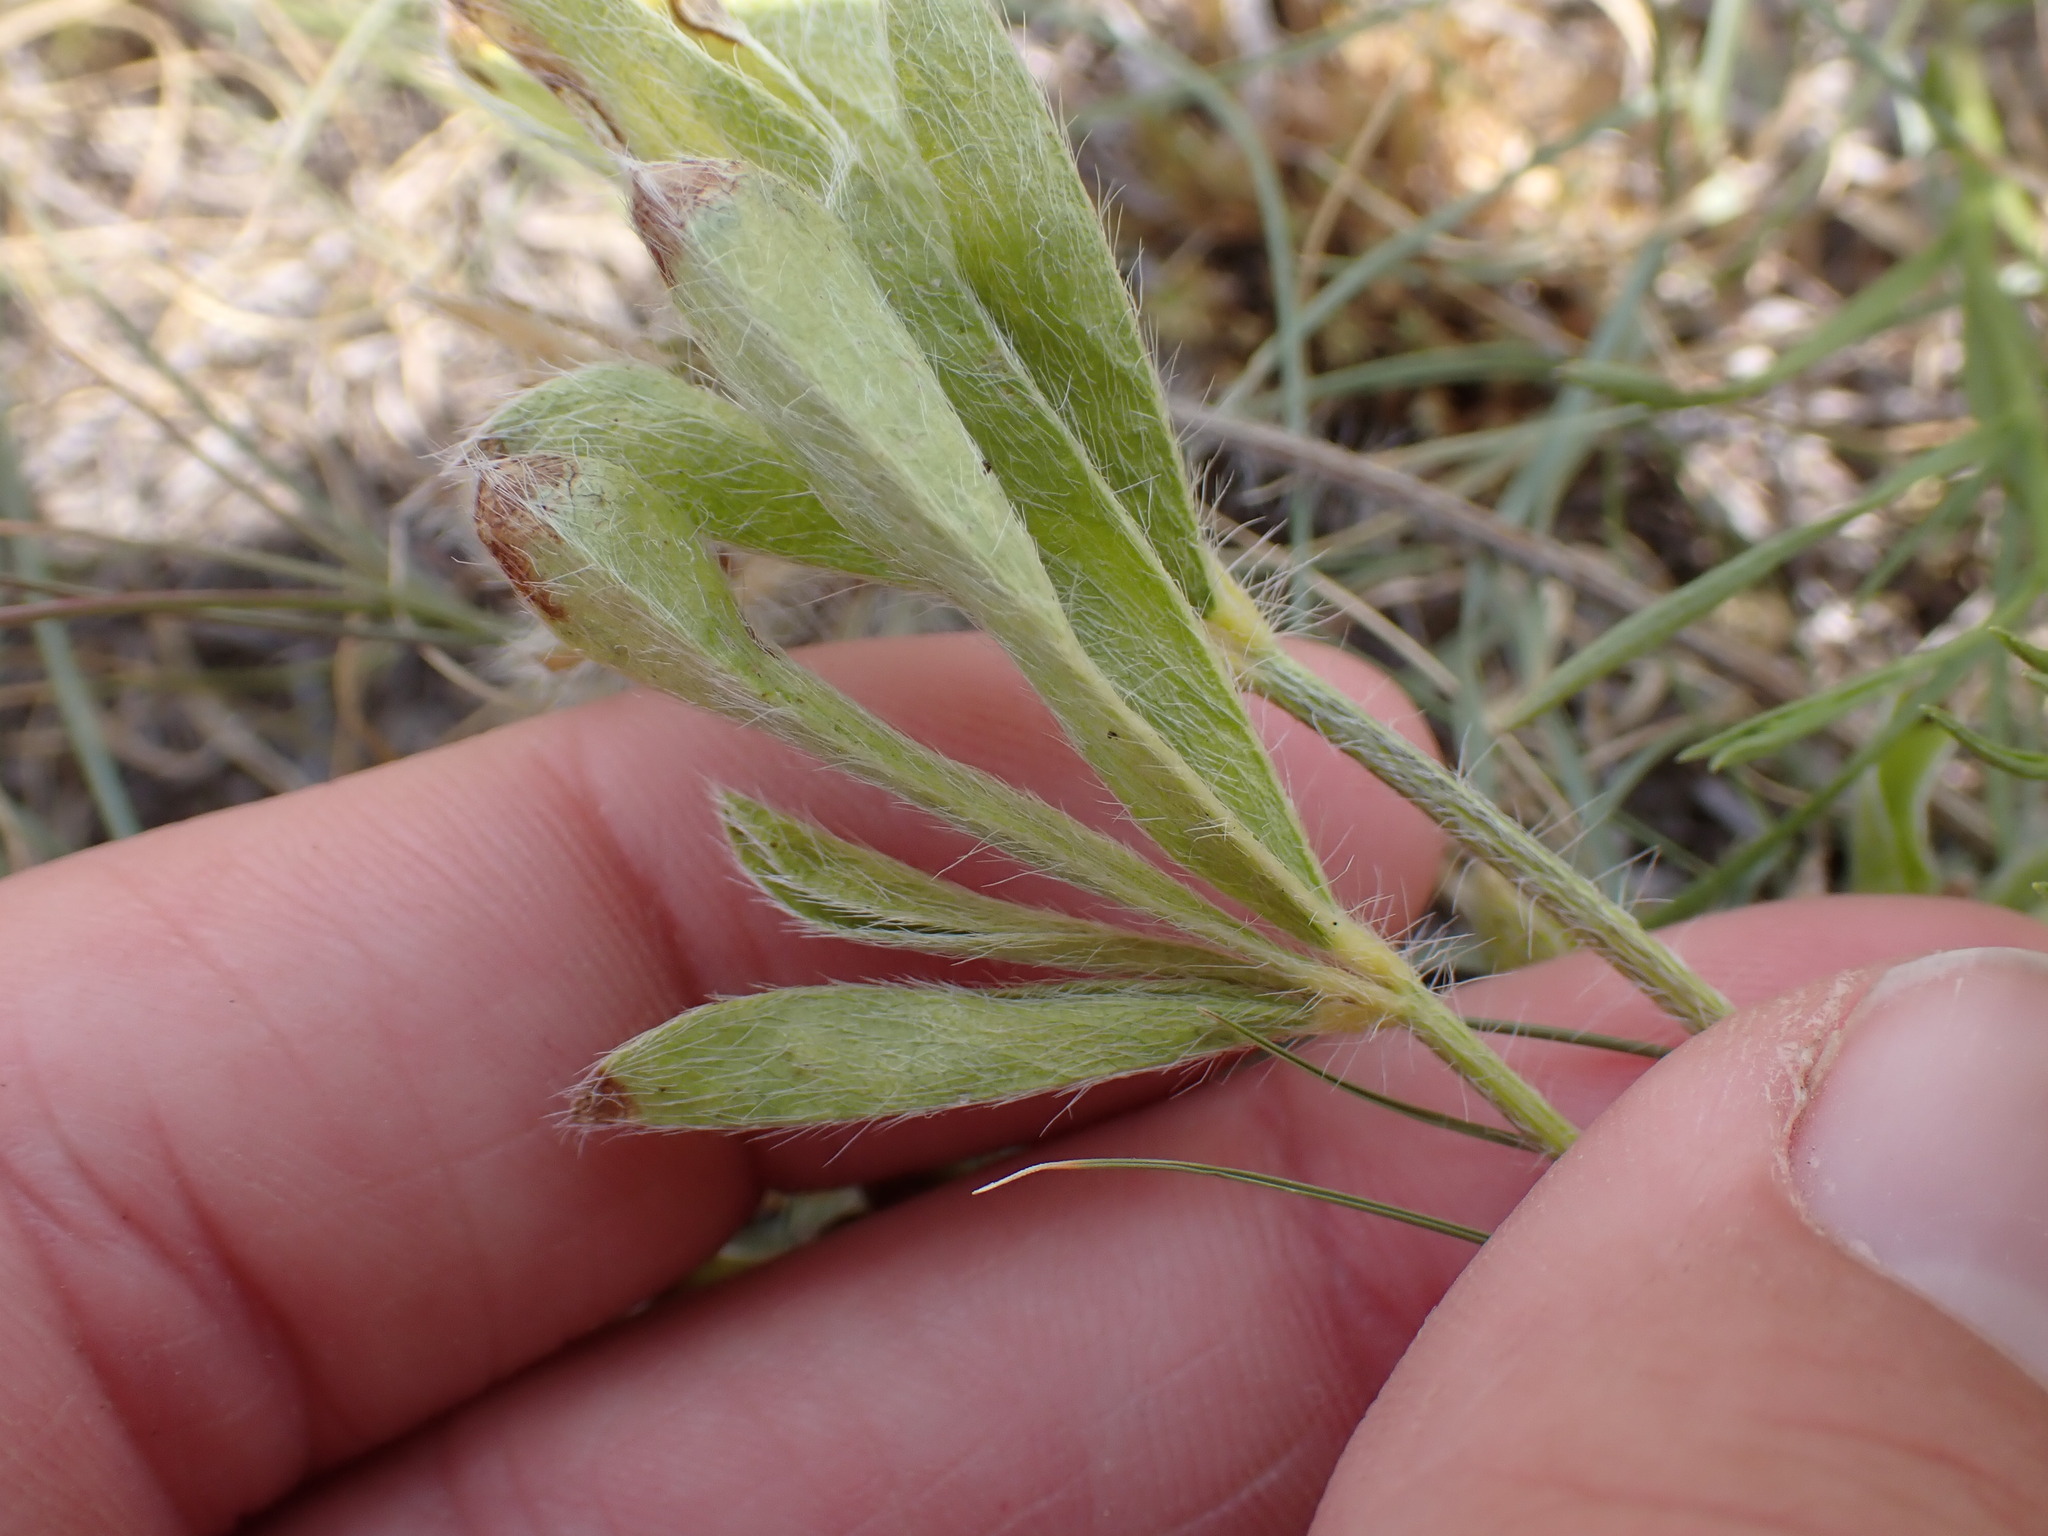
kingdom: Plantae
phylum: Tracheophyta
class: Magnoliopsida
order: Fabales
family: Fabaceae
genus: Pediomelum
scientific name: Pediomelum esculentum
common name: Indian-turnip
